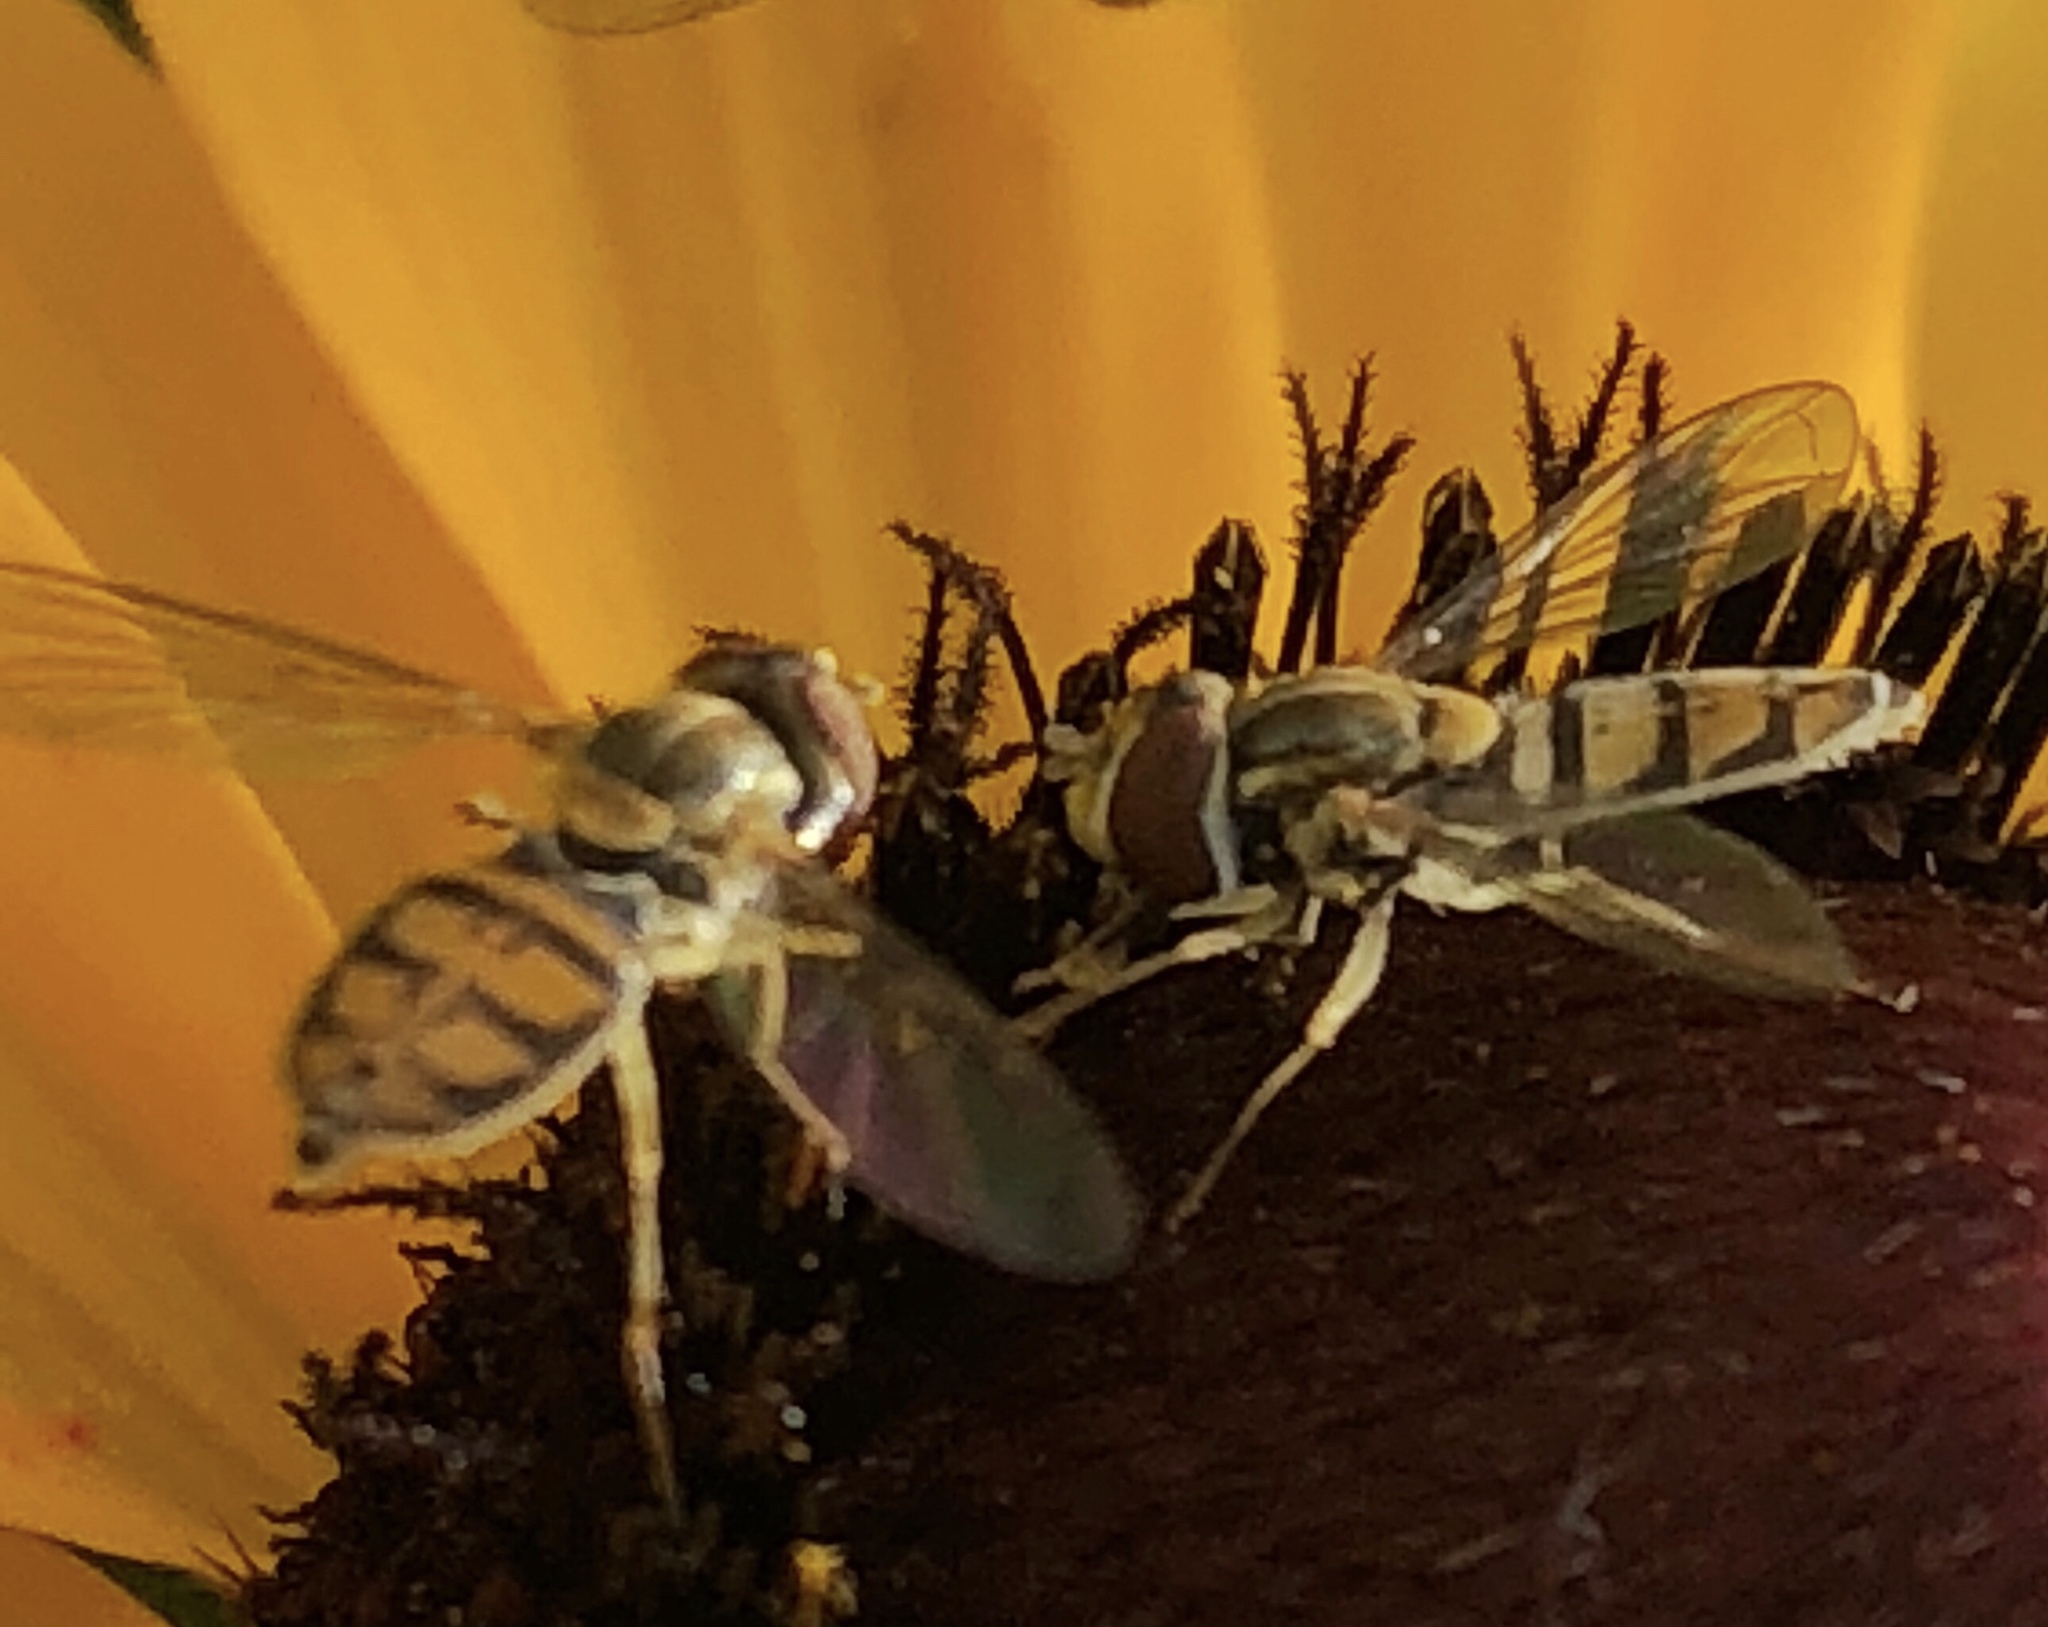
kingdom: Animalia
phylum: Arthropoda
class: Insecta
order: Diptera
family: Syrphidae
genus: Toxomerus
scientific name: Toxomerus marginatus
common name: Syrphid fly
